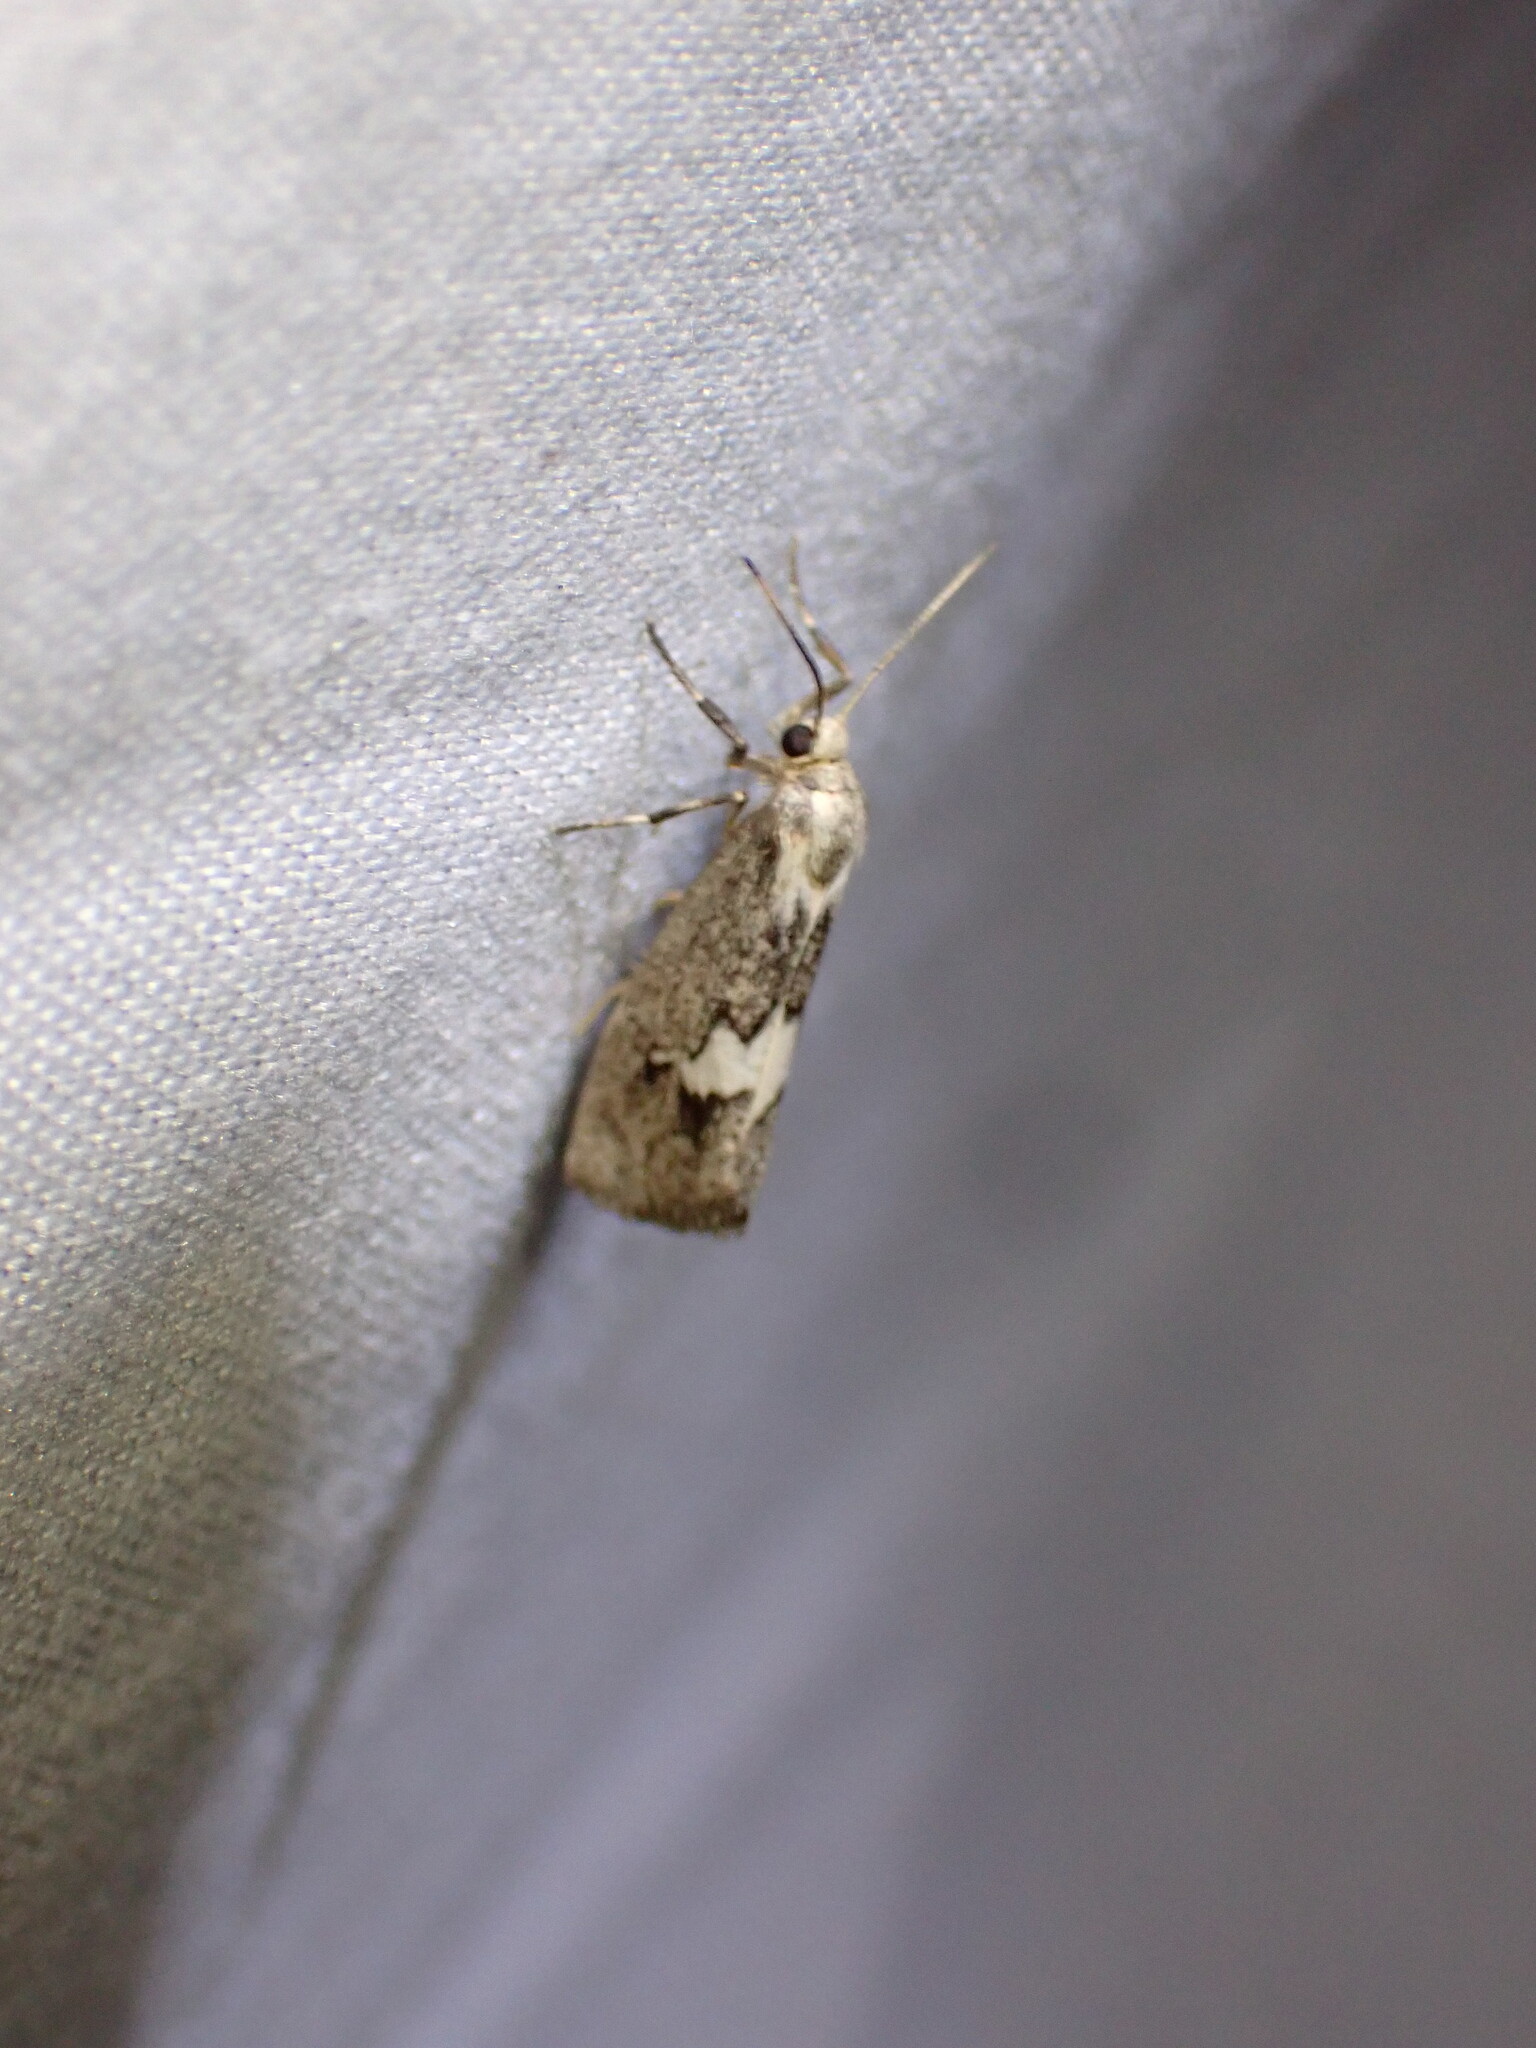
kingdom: Animalia
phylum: Arthropoda
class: Insecta
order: Lepidoptera
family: Erebidae
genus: Cisthene
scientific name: Cisthene deserta
